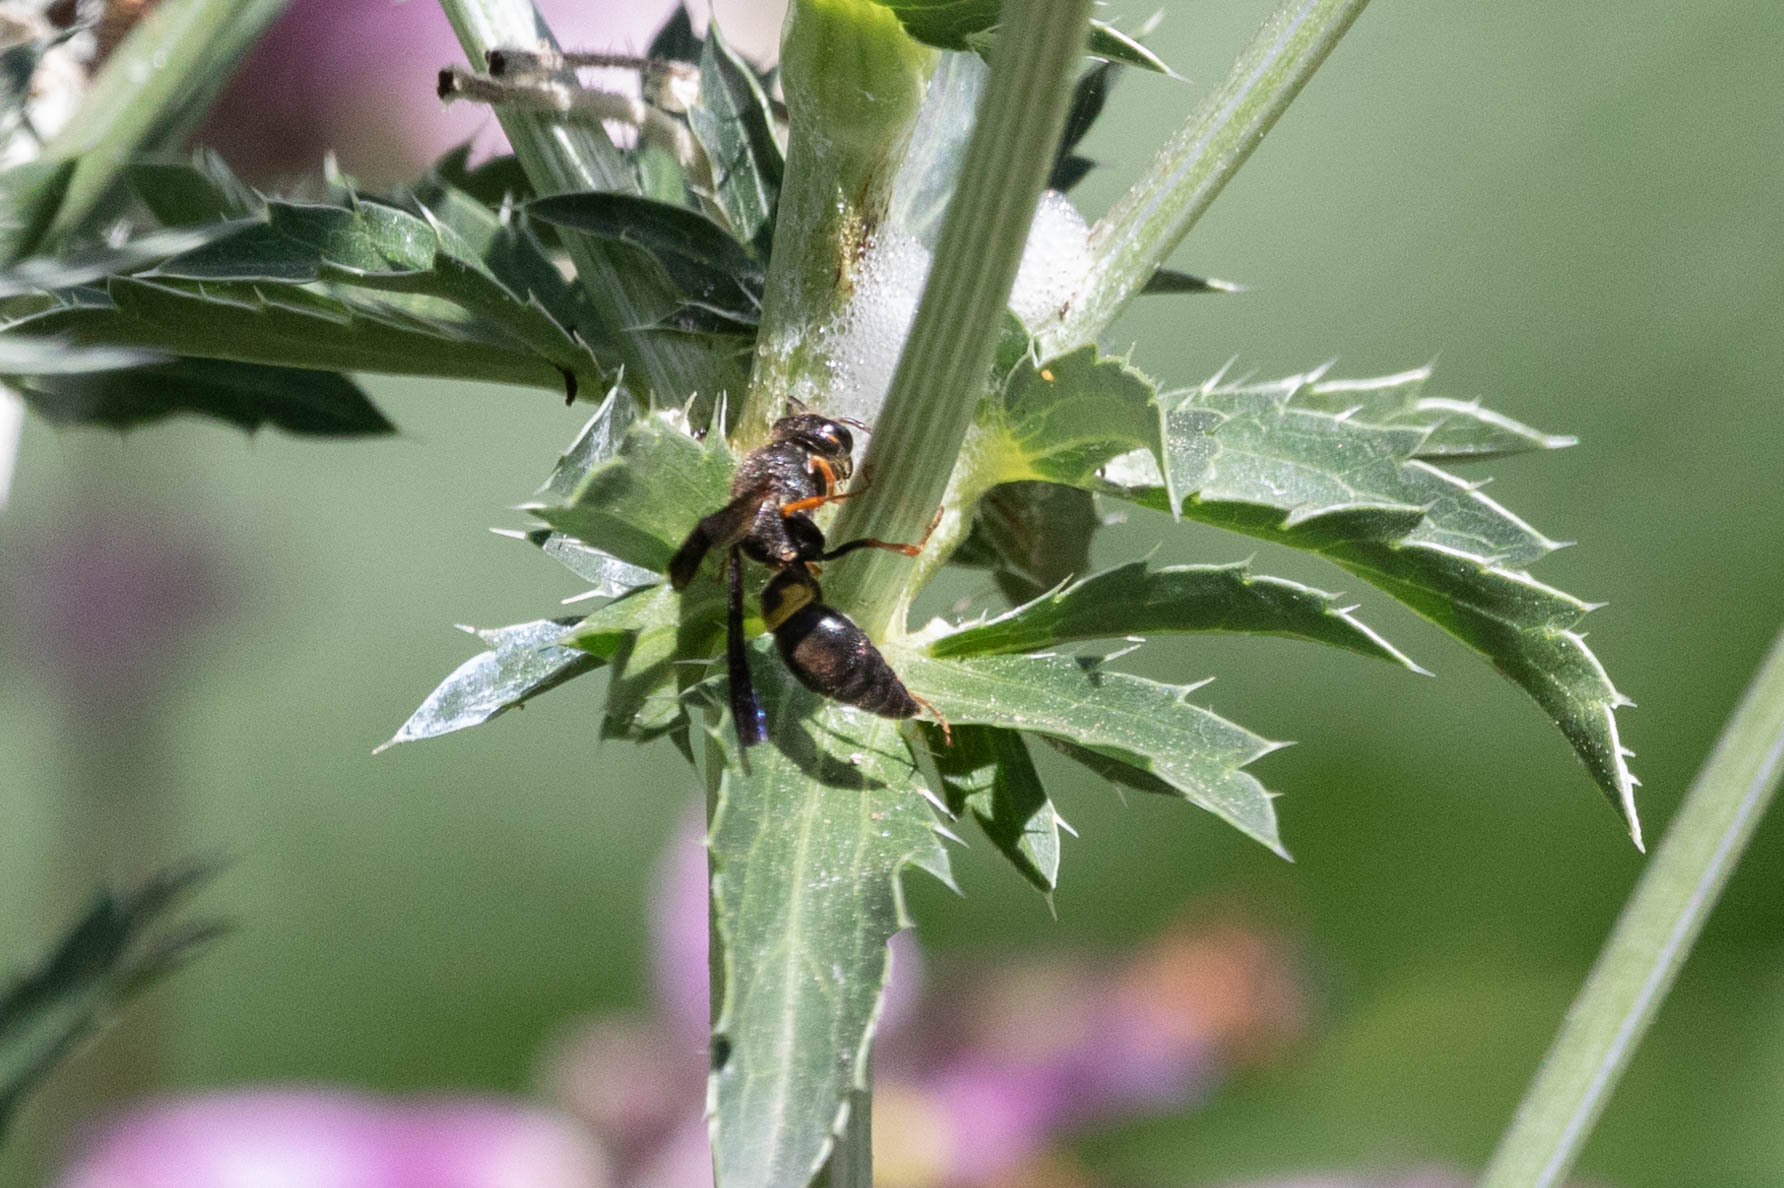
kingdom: Animalia
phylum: Arthropoda
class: Insecta
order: Hymenoptera
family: Vespidae
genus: Ancistrocerus
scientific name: Ancistrocerus unifasciatus
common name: One-banded mason wasp
